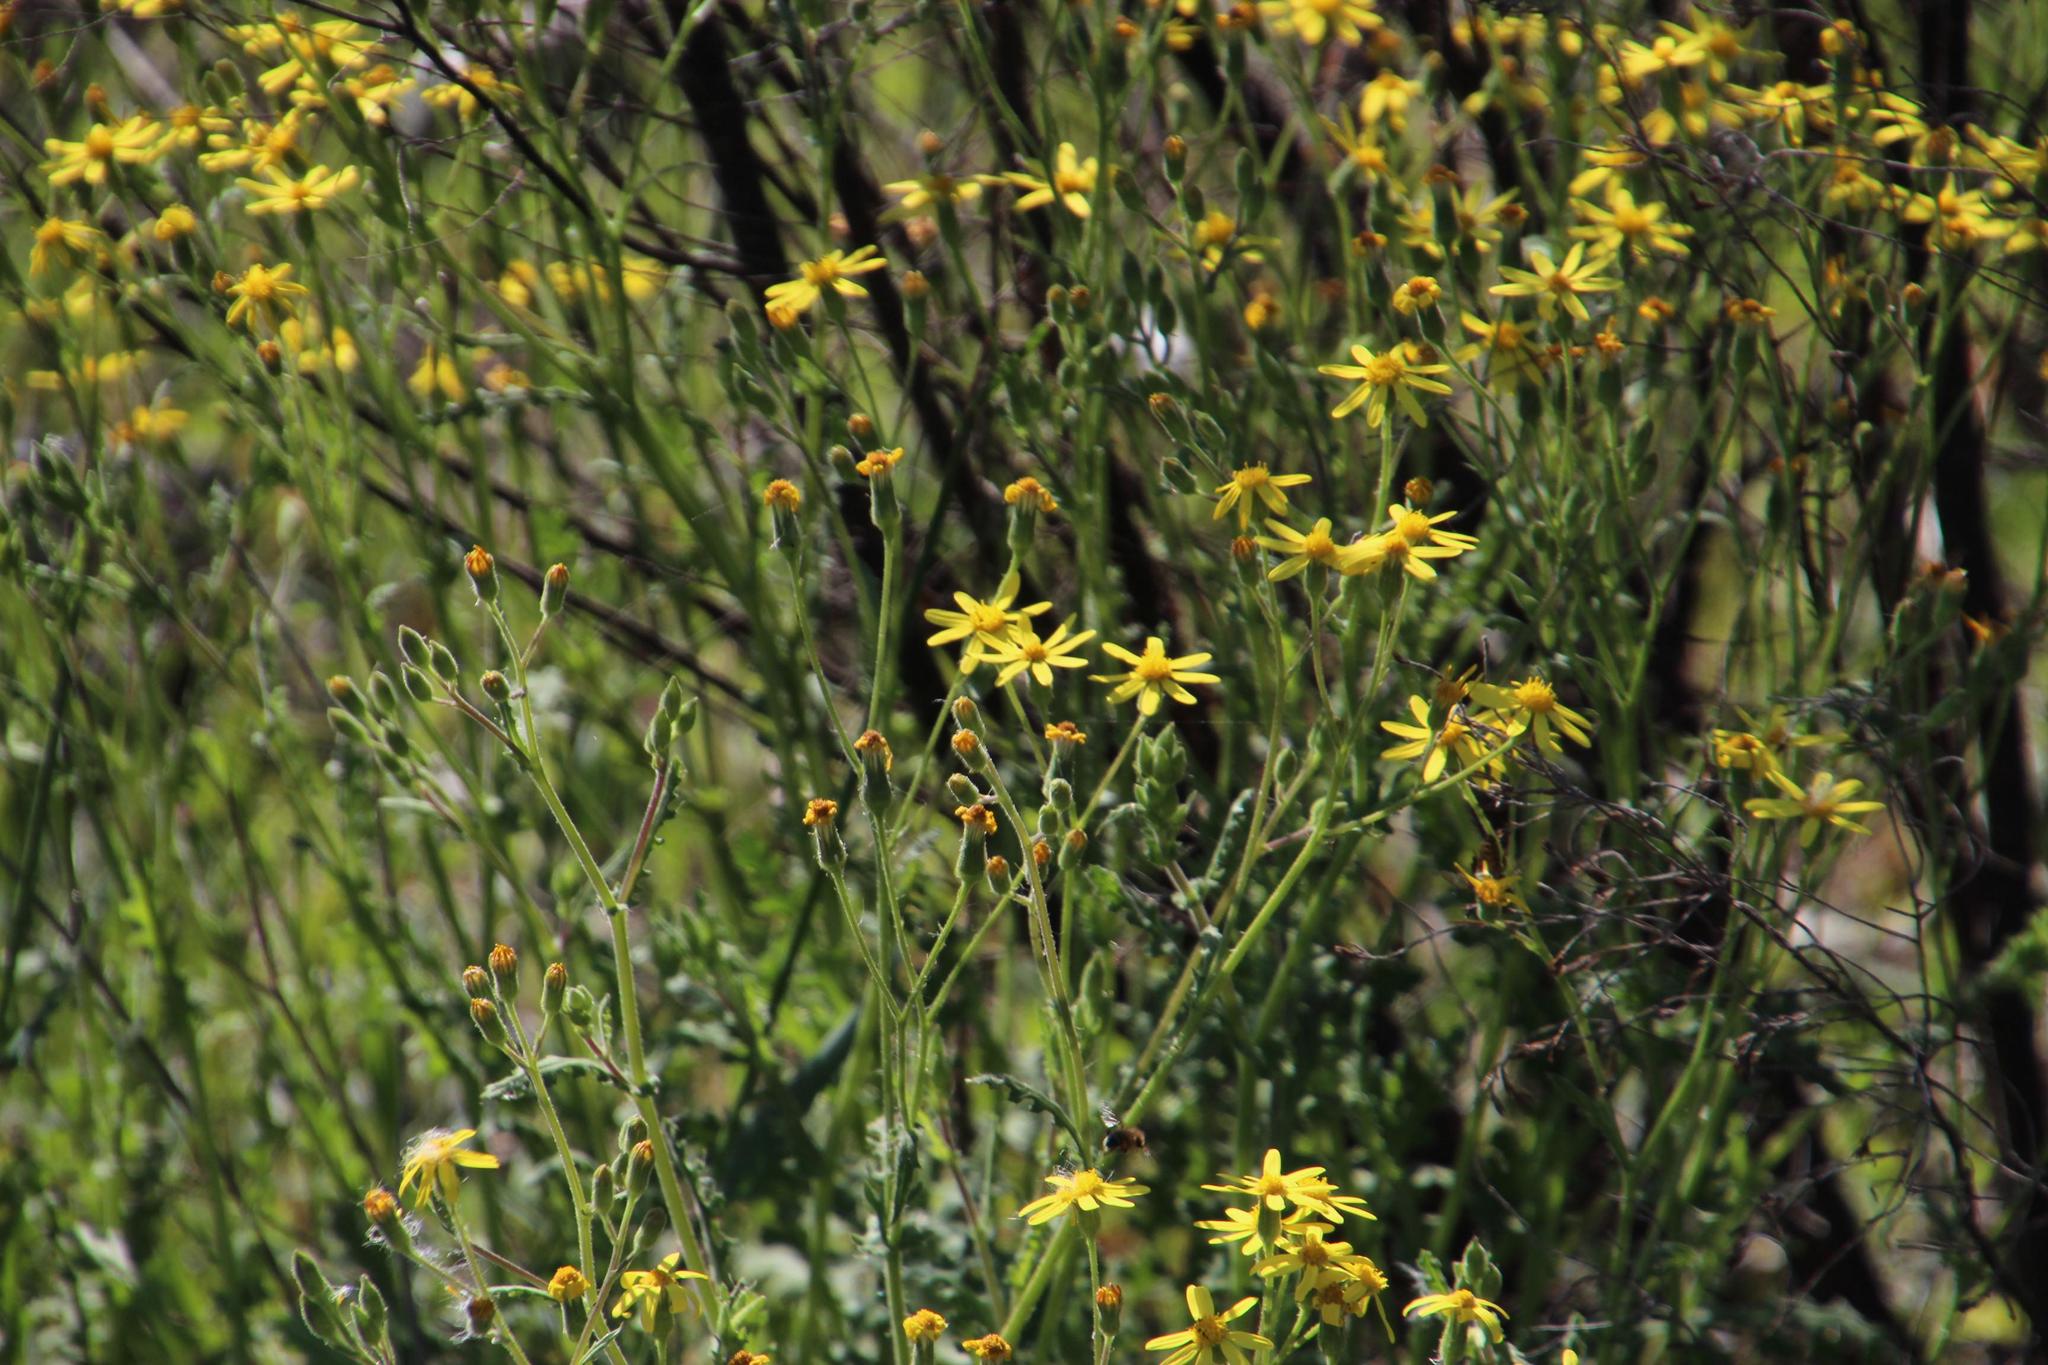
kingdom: Plantae
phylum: Tracheophyta
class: Magnoliopsida
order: Asterales
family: Asteraceae
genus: Senecio
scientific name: Senecio burchellii
